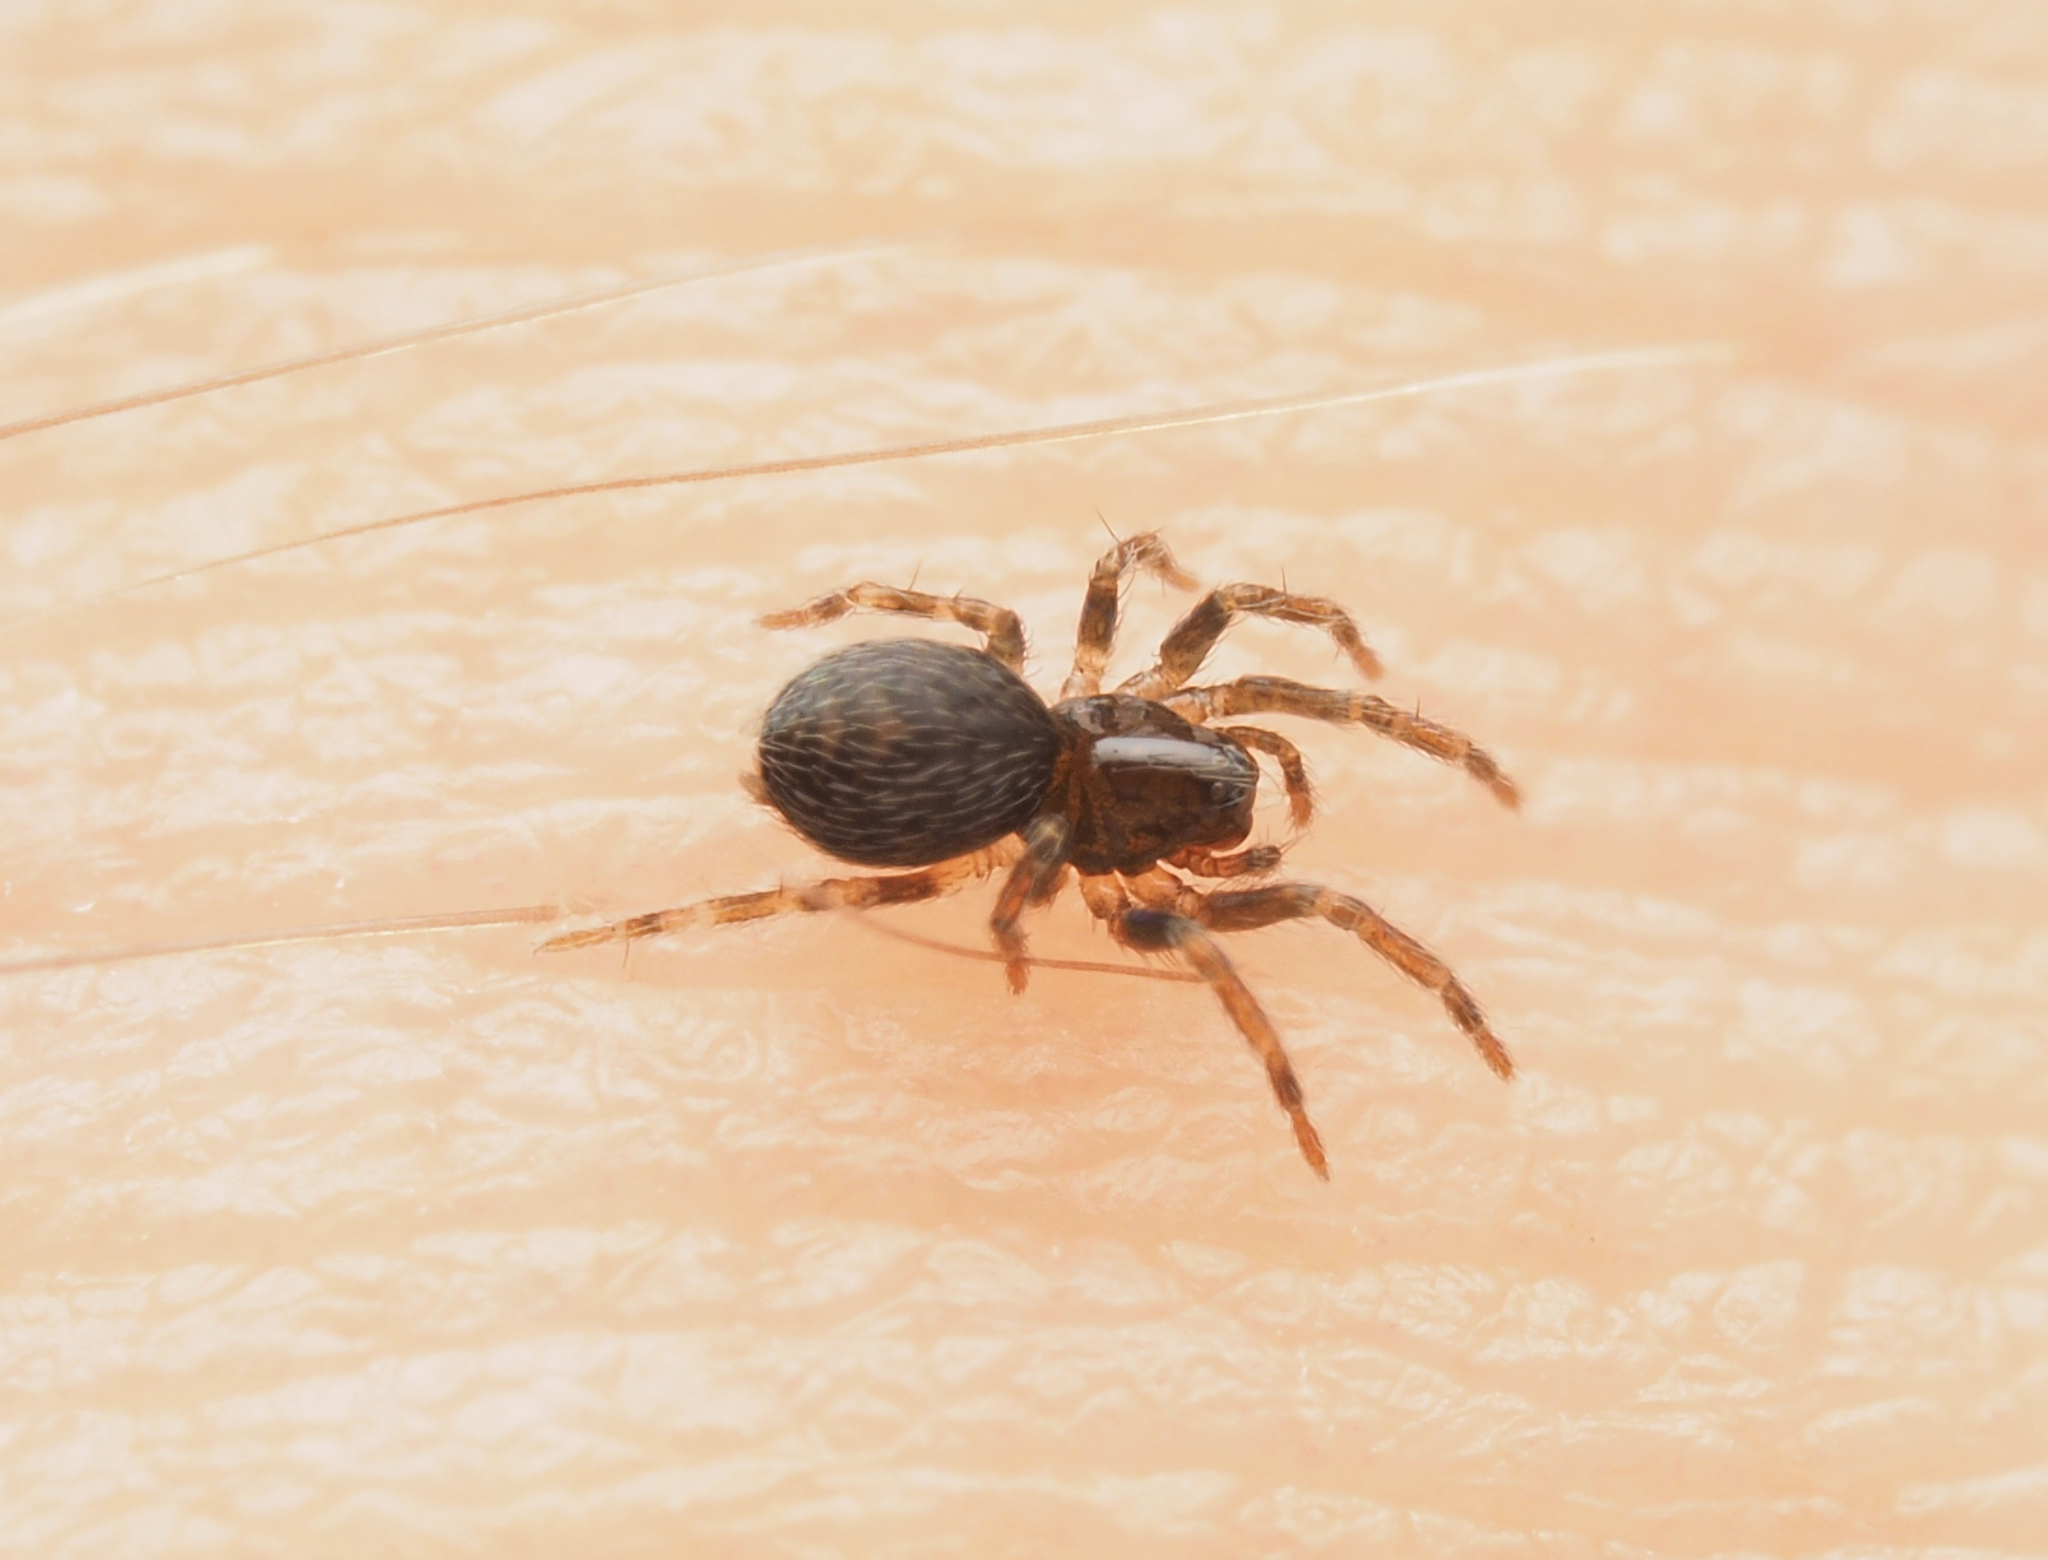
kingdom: Animalia
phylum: Arthropoda
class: Arachnida
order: Araneae
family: Hahniidae
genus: Alistra
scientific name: Alistra
